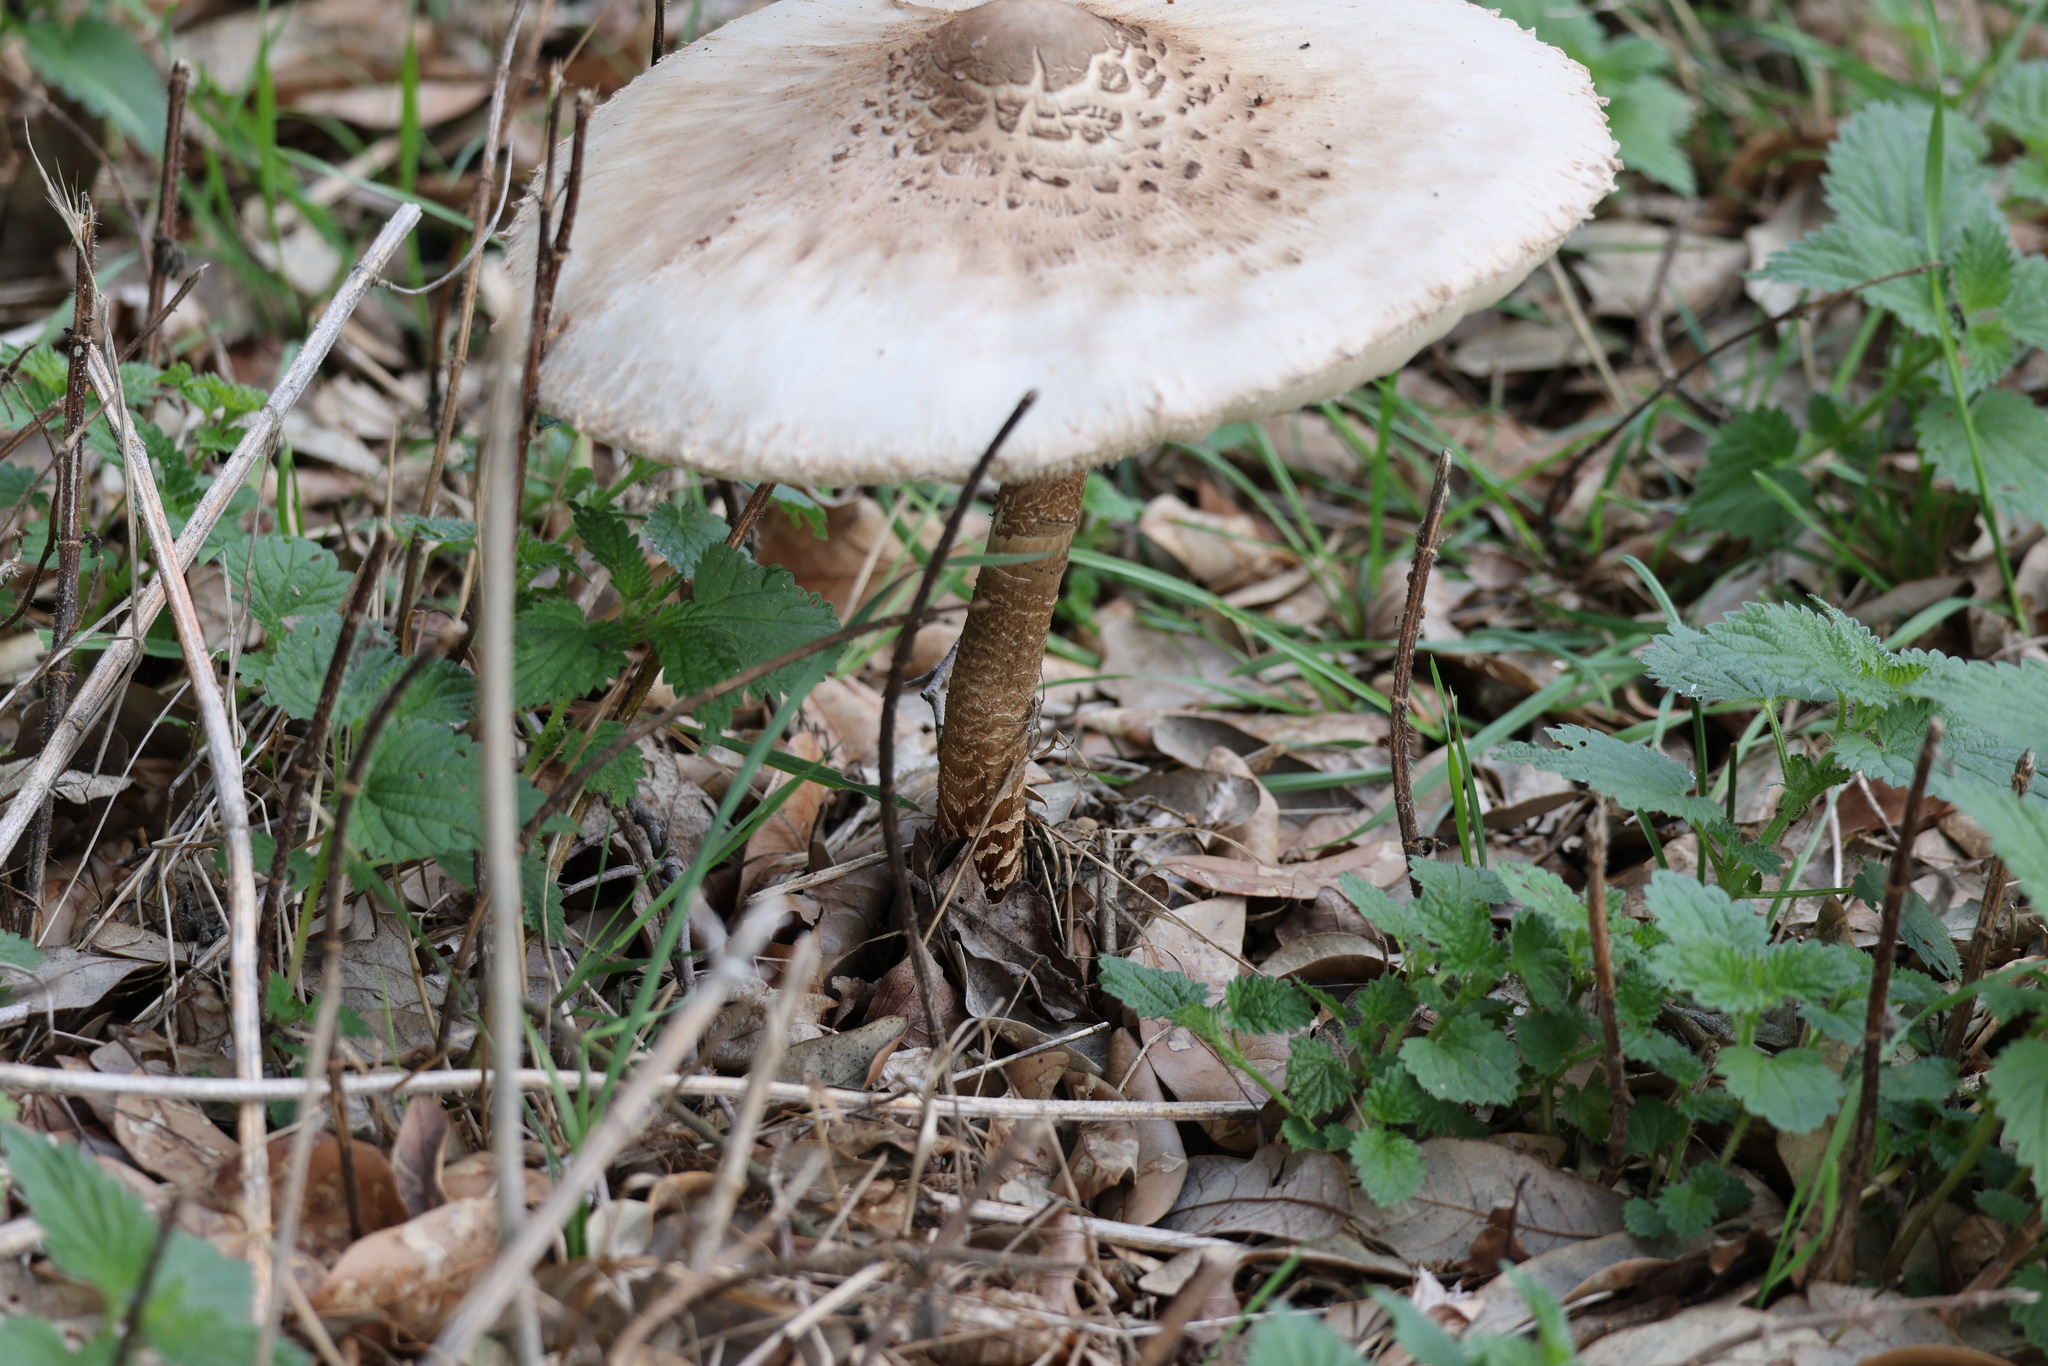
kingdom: Fungi
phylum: Basidiomycota
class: Agaricomycetes
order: Agaricales
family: Agaricaceae
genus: Macrolepiota
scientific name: Macrolepiota procera
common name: Parasol
